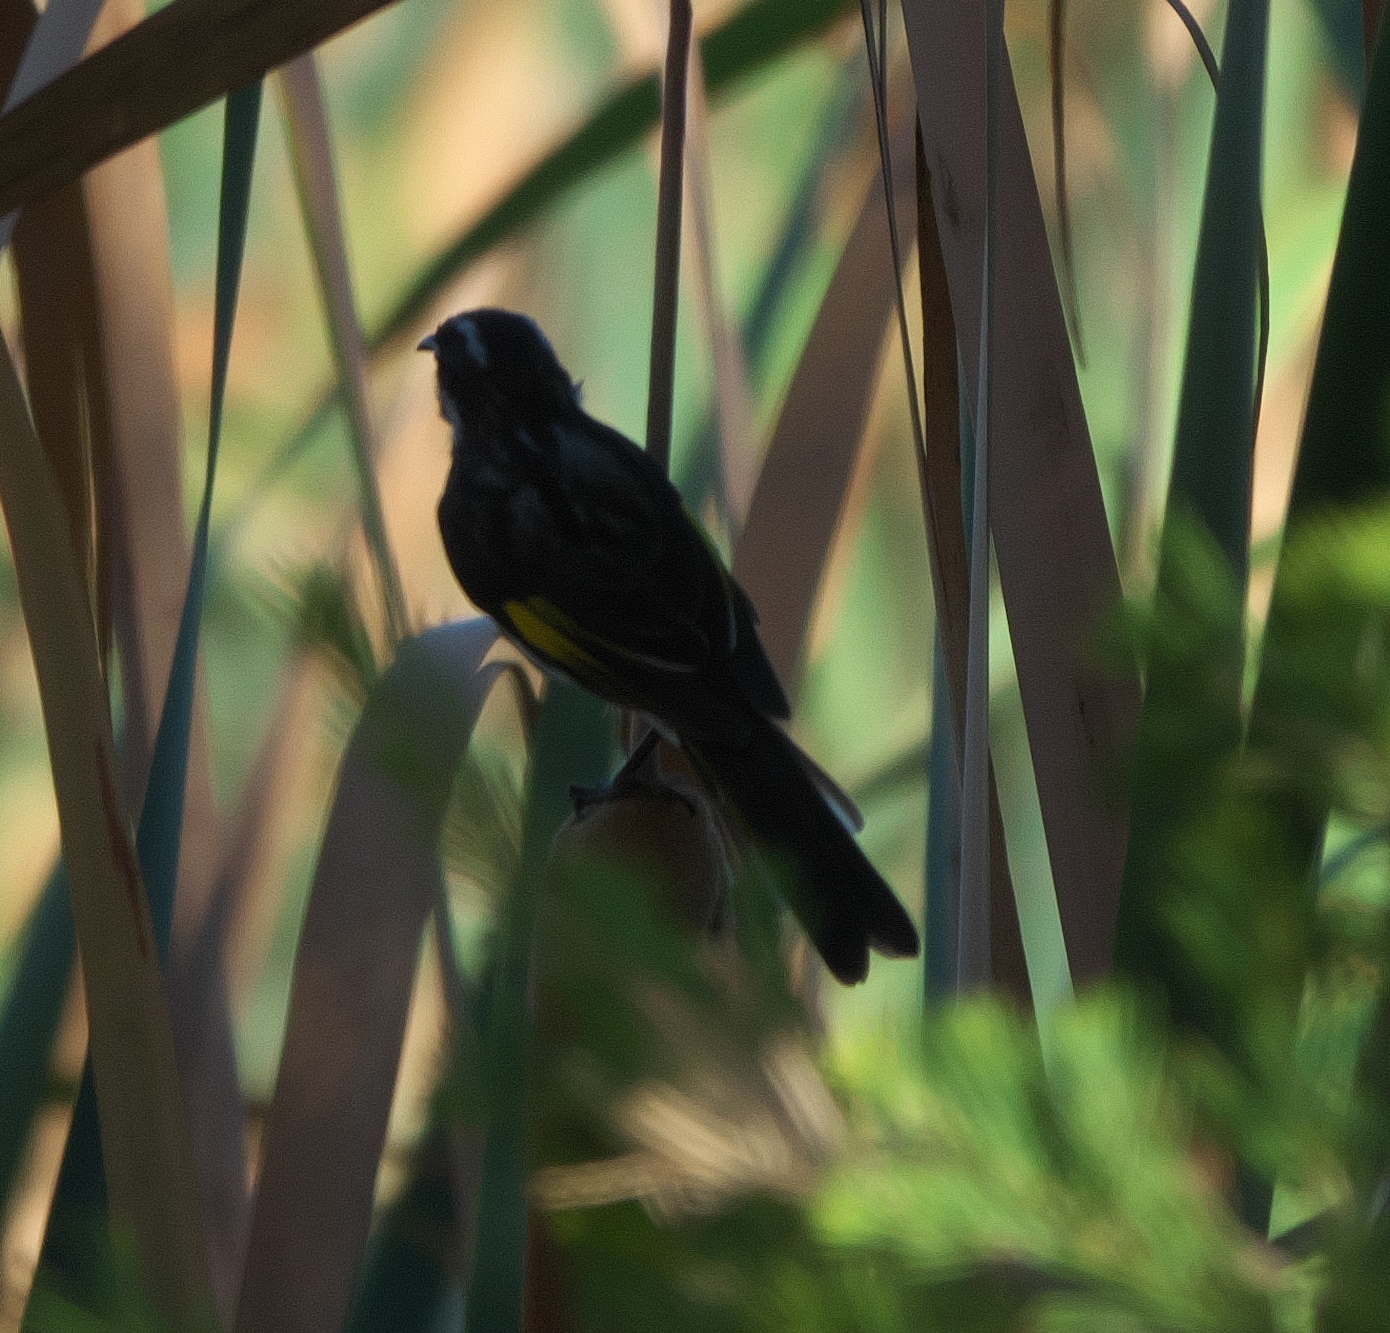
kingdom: Animalia
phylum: Chordata
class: Aves
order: Passeriformes
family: Meliphagidae
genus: Phylidonyris
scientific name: Phylidonyris novaehollandiae
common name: New holland honeyeater
